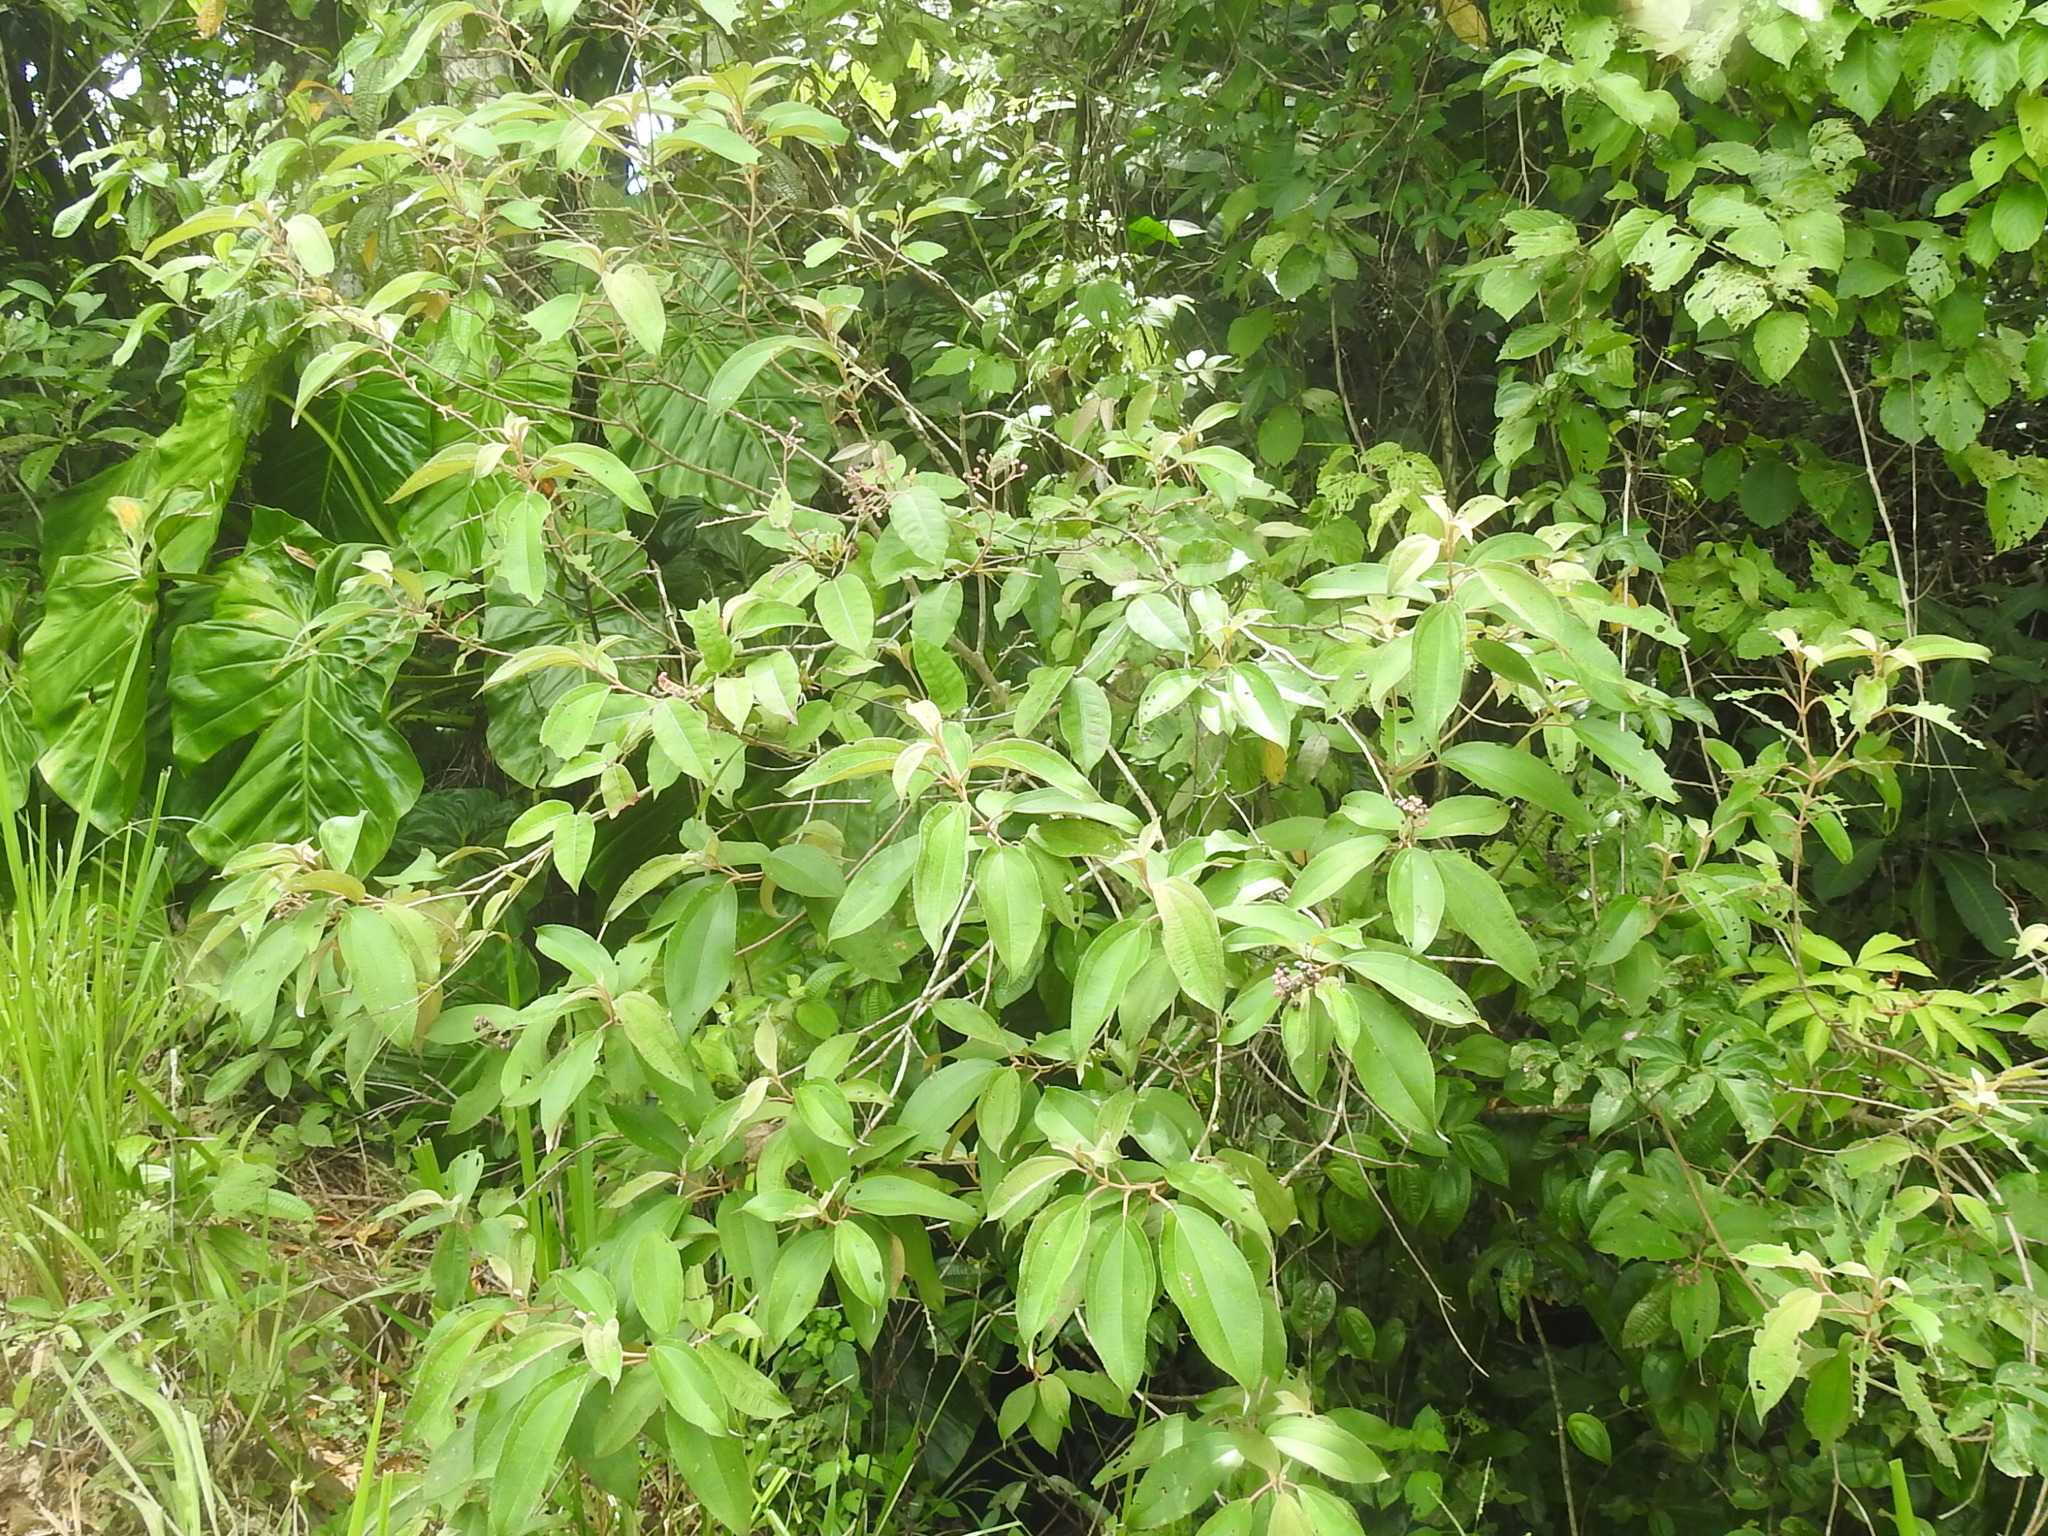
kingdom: Plantae
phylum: Tracheophyta
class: Magnoliopsida
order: Myrtales
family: Melastomataceae
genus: Miconia
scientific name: Miconia xalapensis
